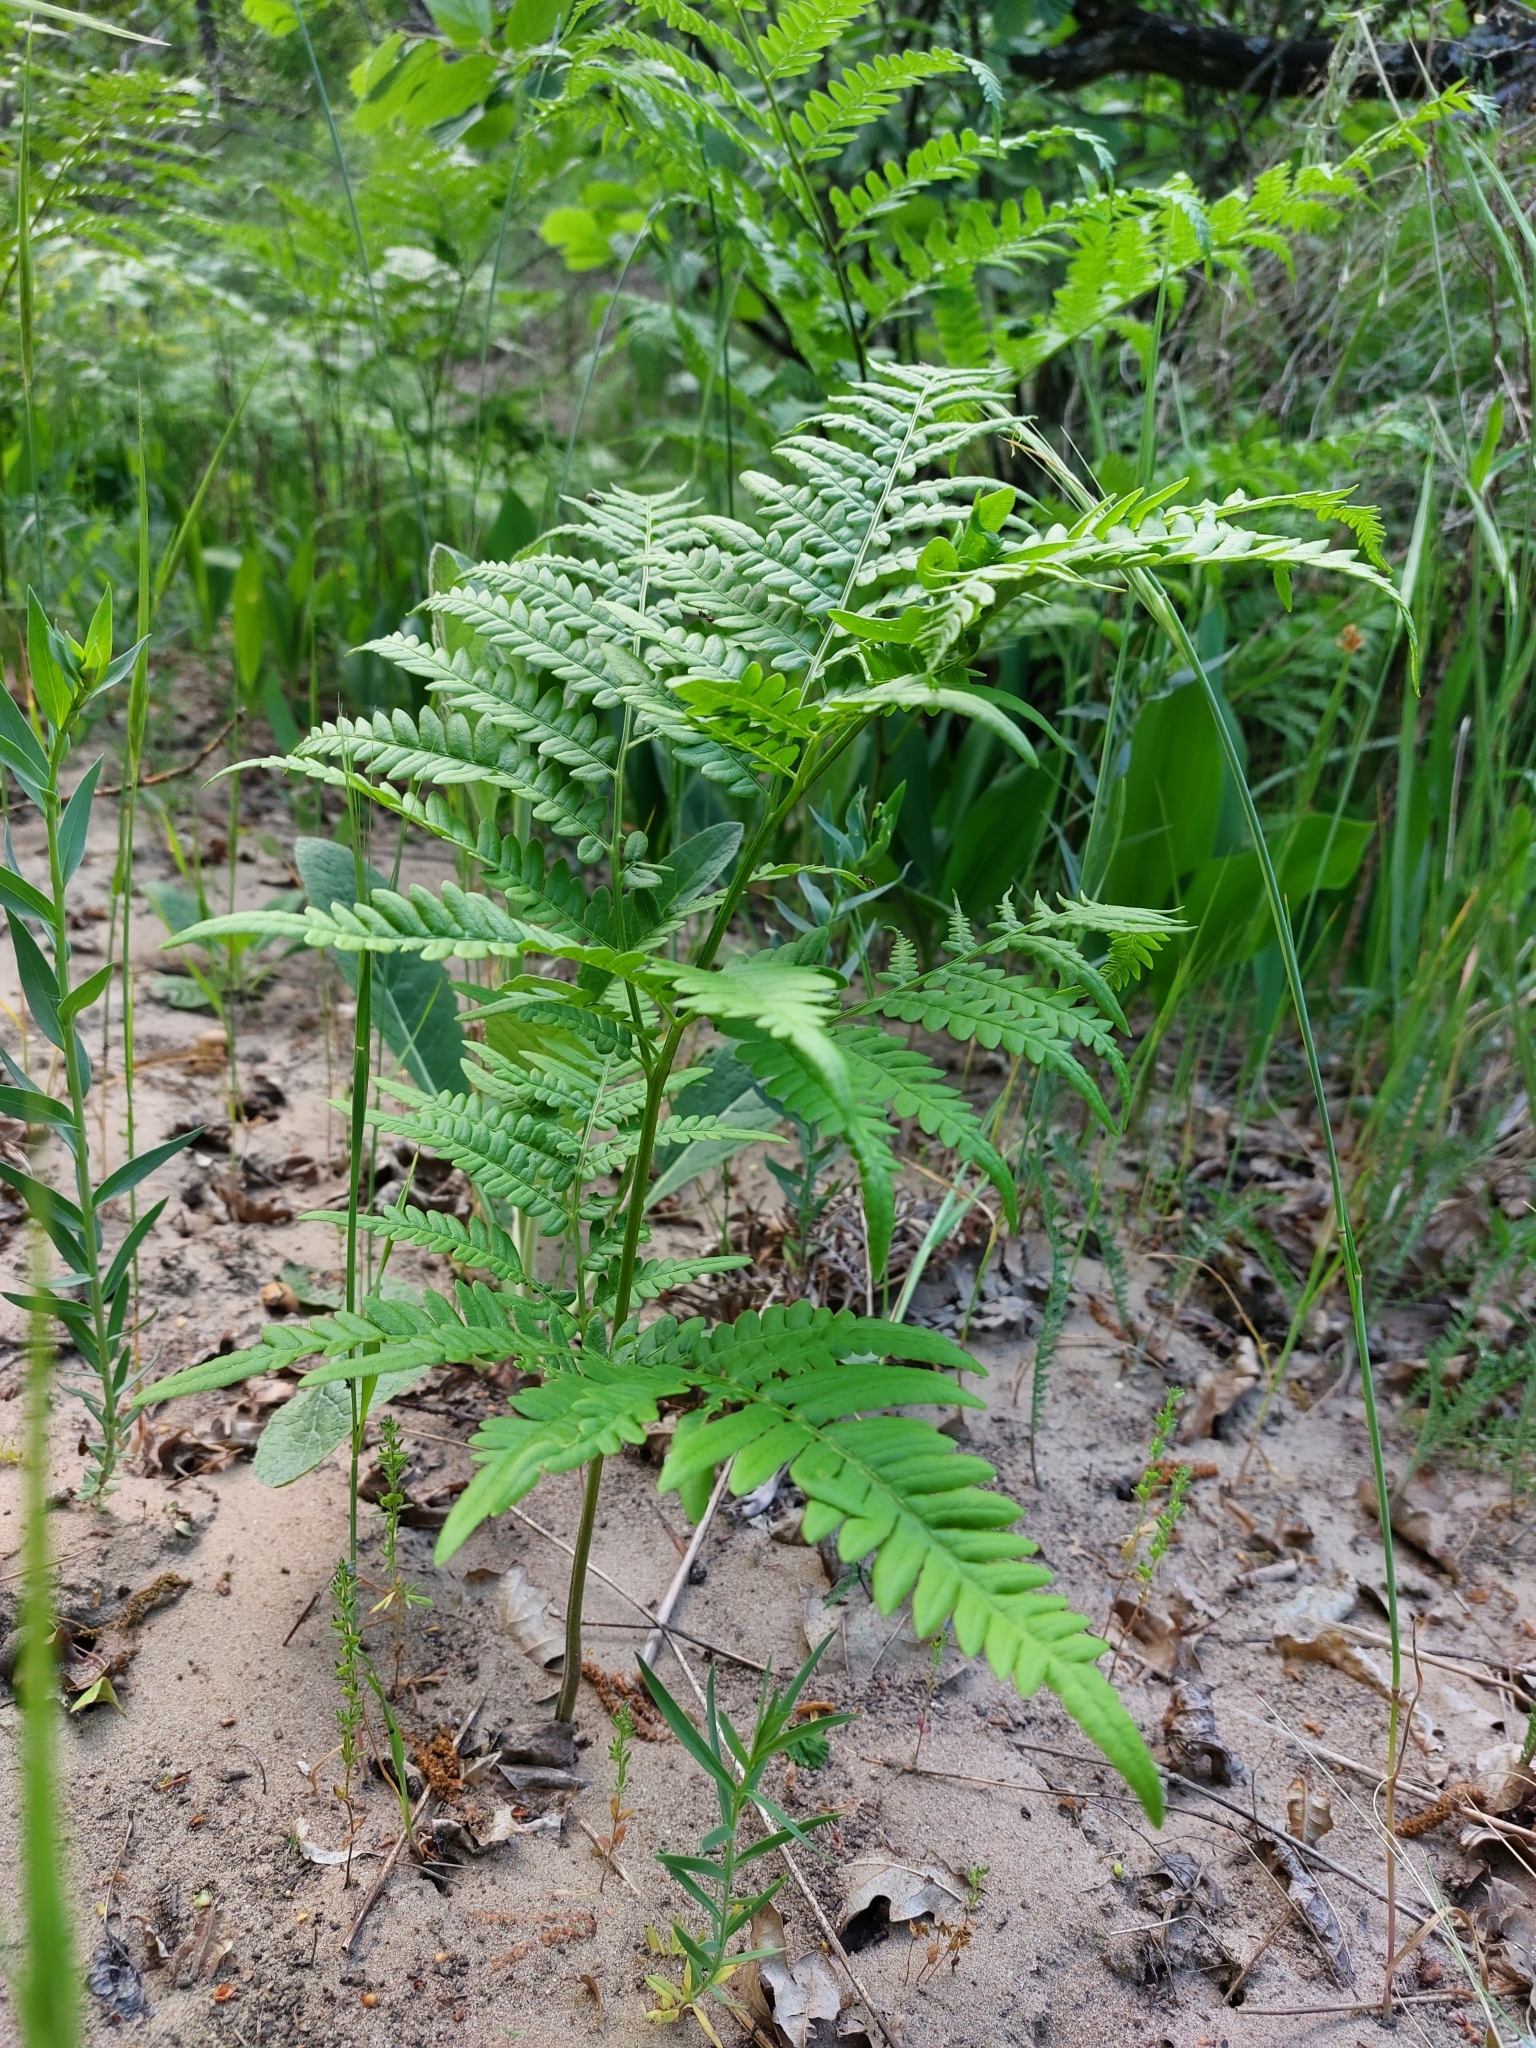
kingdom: Plantae
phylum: Tracheophyta
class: Polypodiopsida
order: Polypodiales
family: Dennstaedtiaceae
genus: Pteridium
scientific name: Pteridium aquilinum
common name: Bracken
